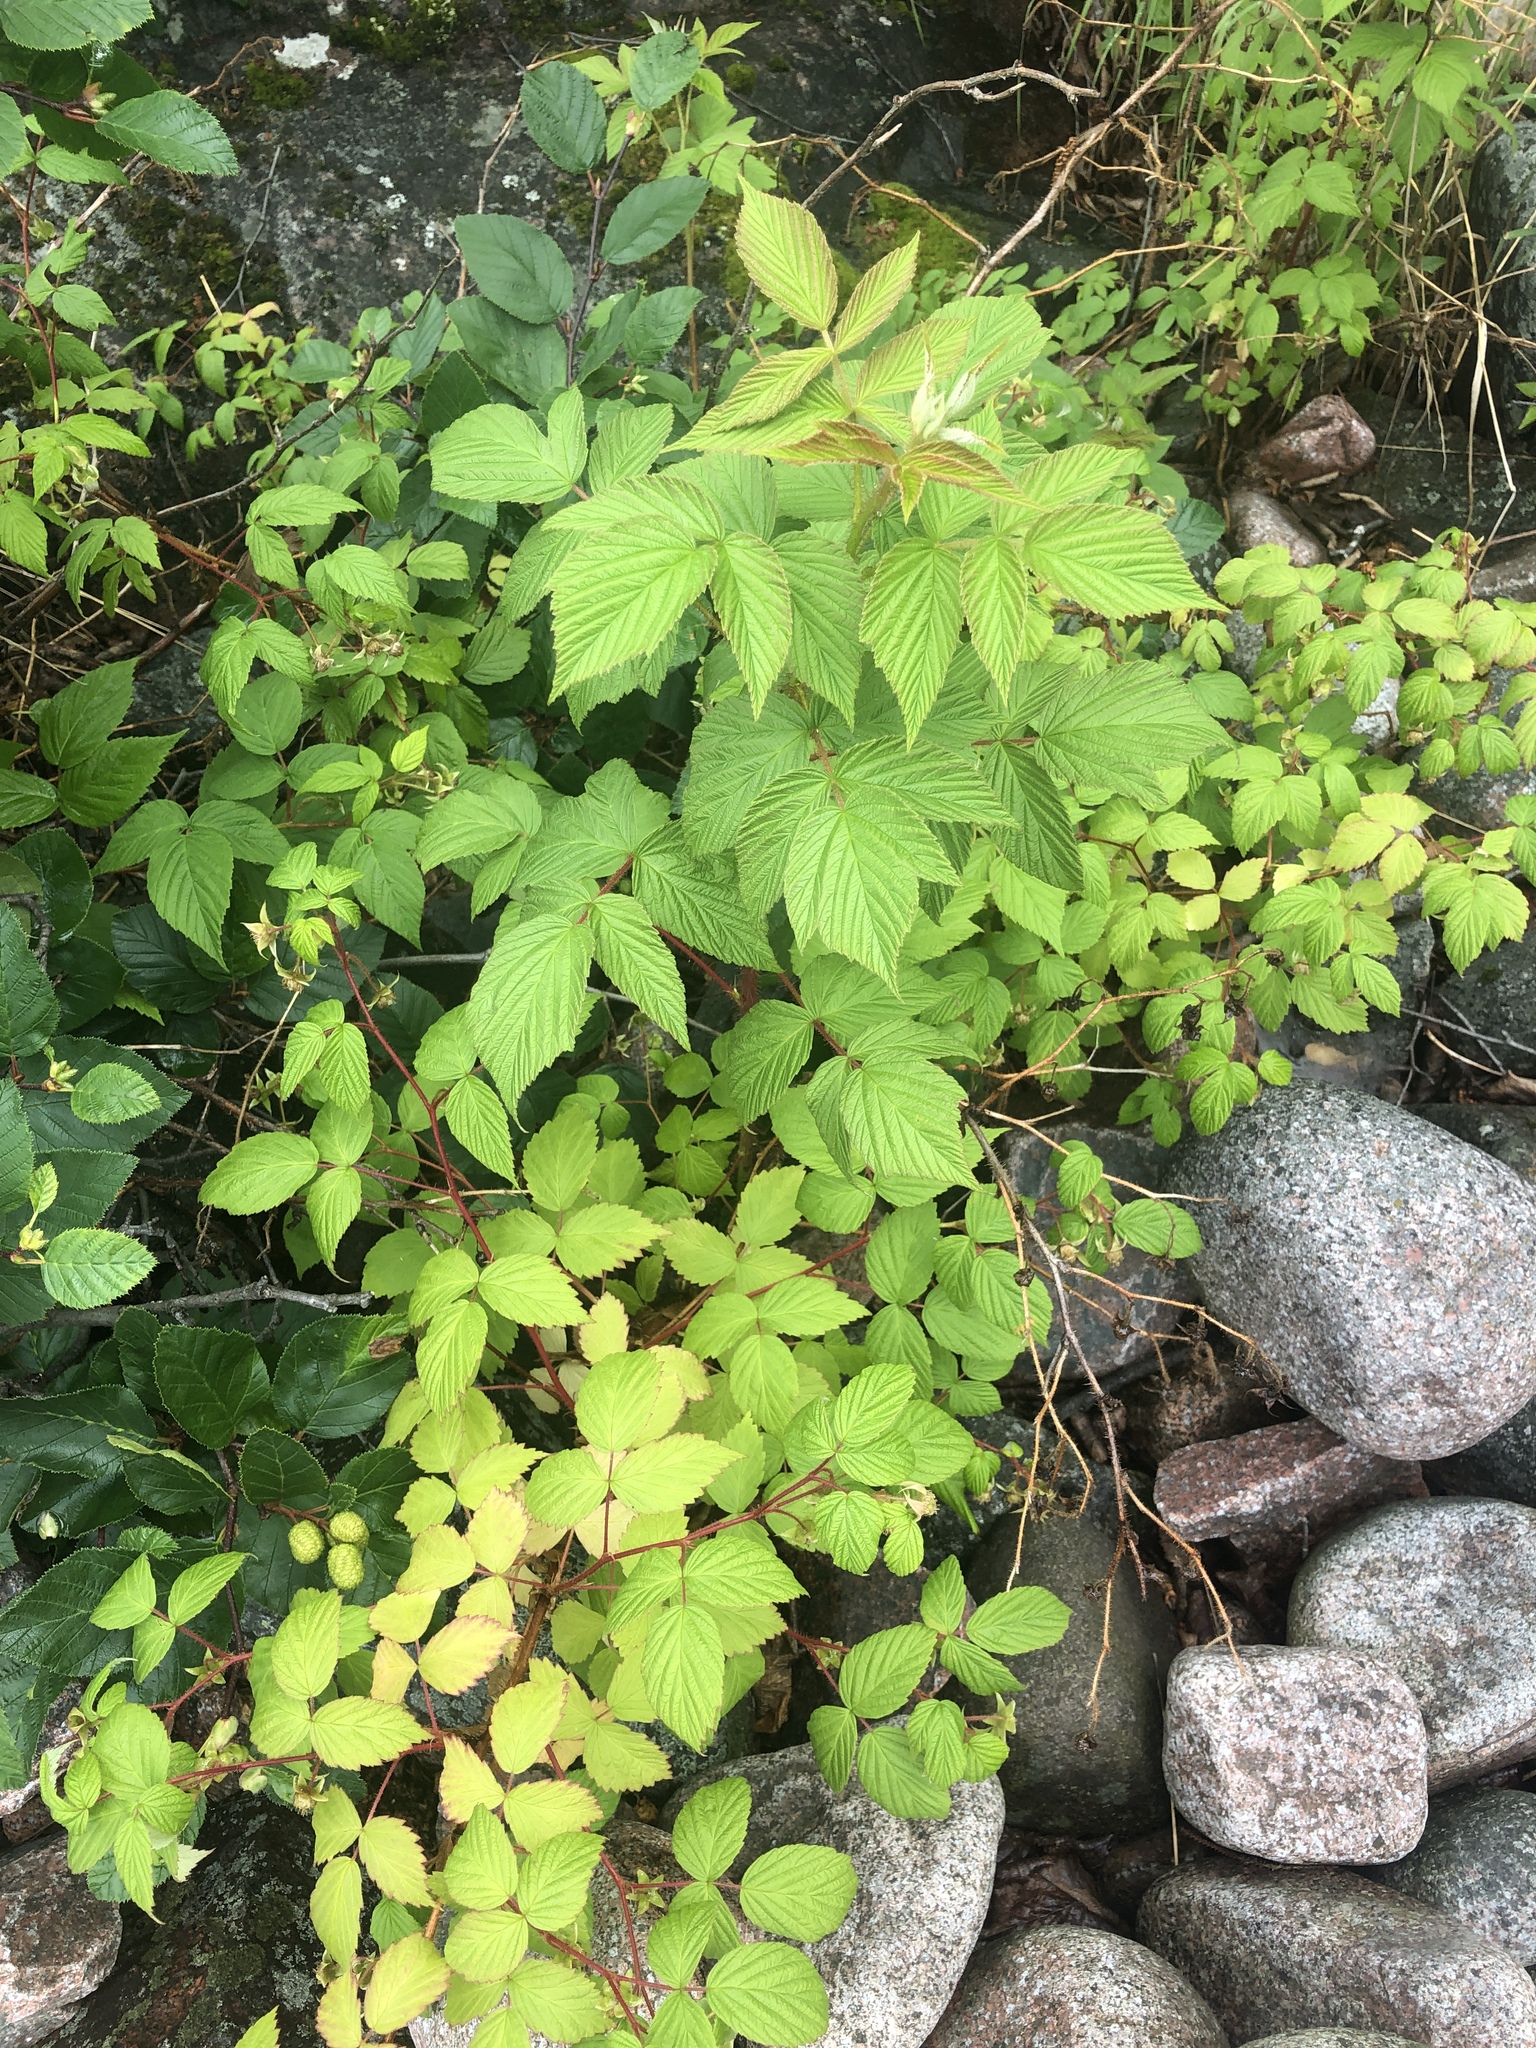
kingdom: Plantae
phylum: Tracheophyta
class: Magnoliopsida
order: Rosales
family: Rosaceae
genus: Rubus
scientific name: Rubus idaeus
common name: Raspberry
